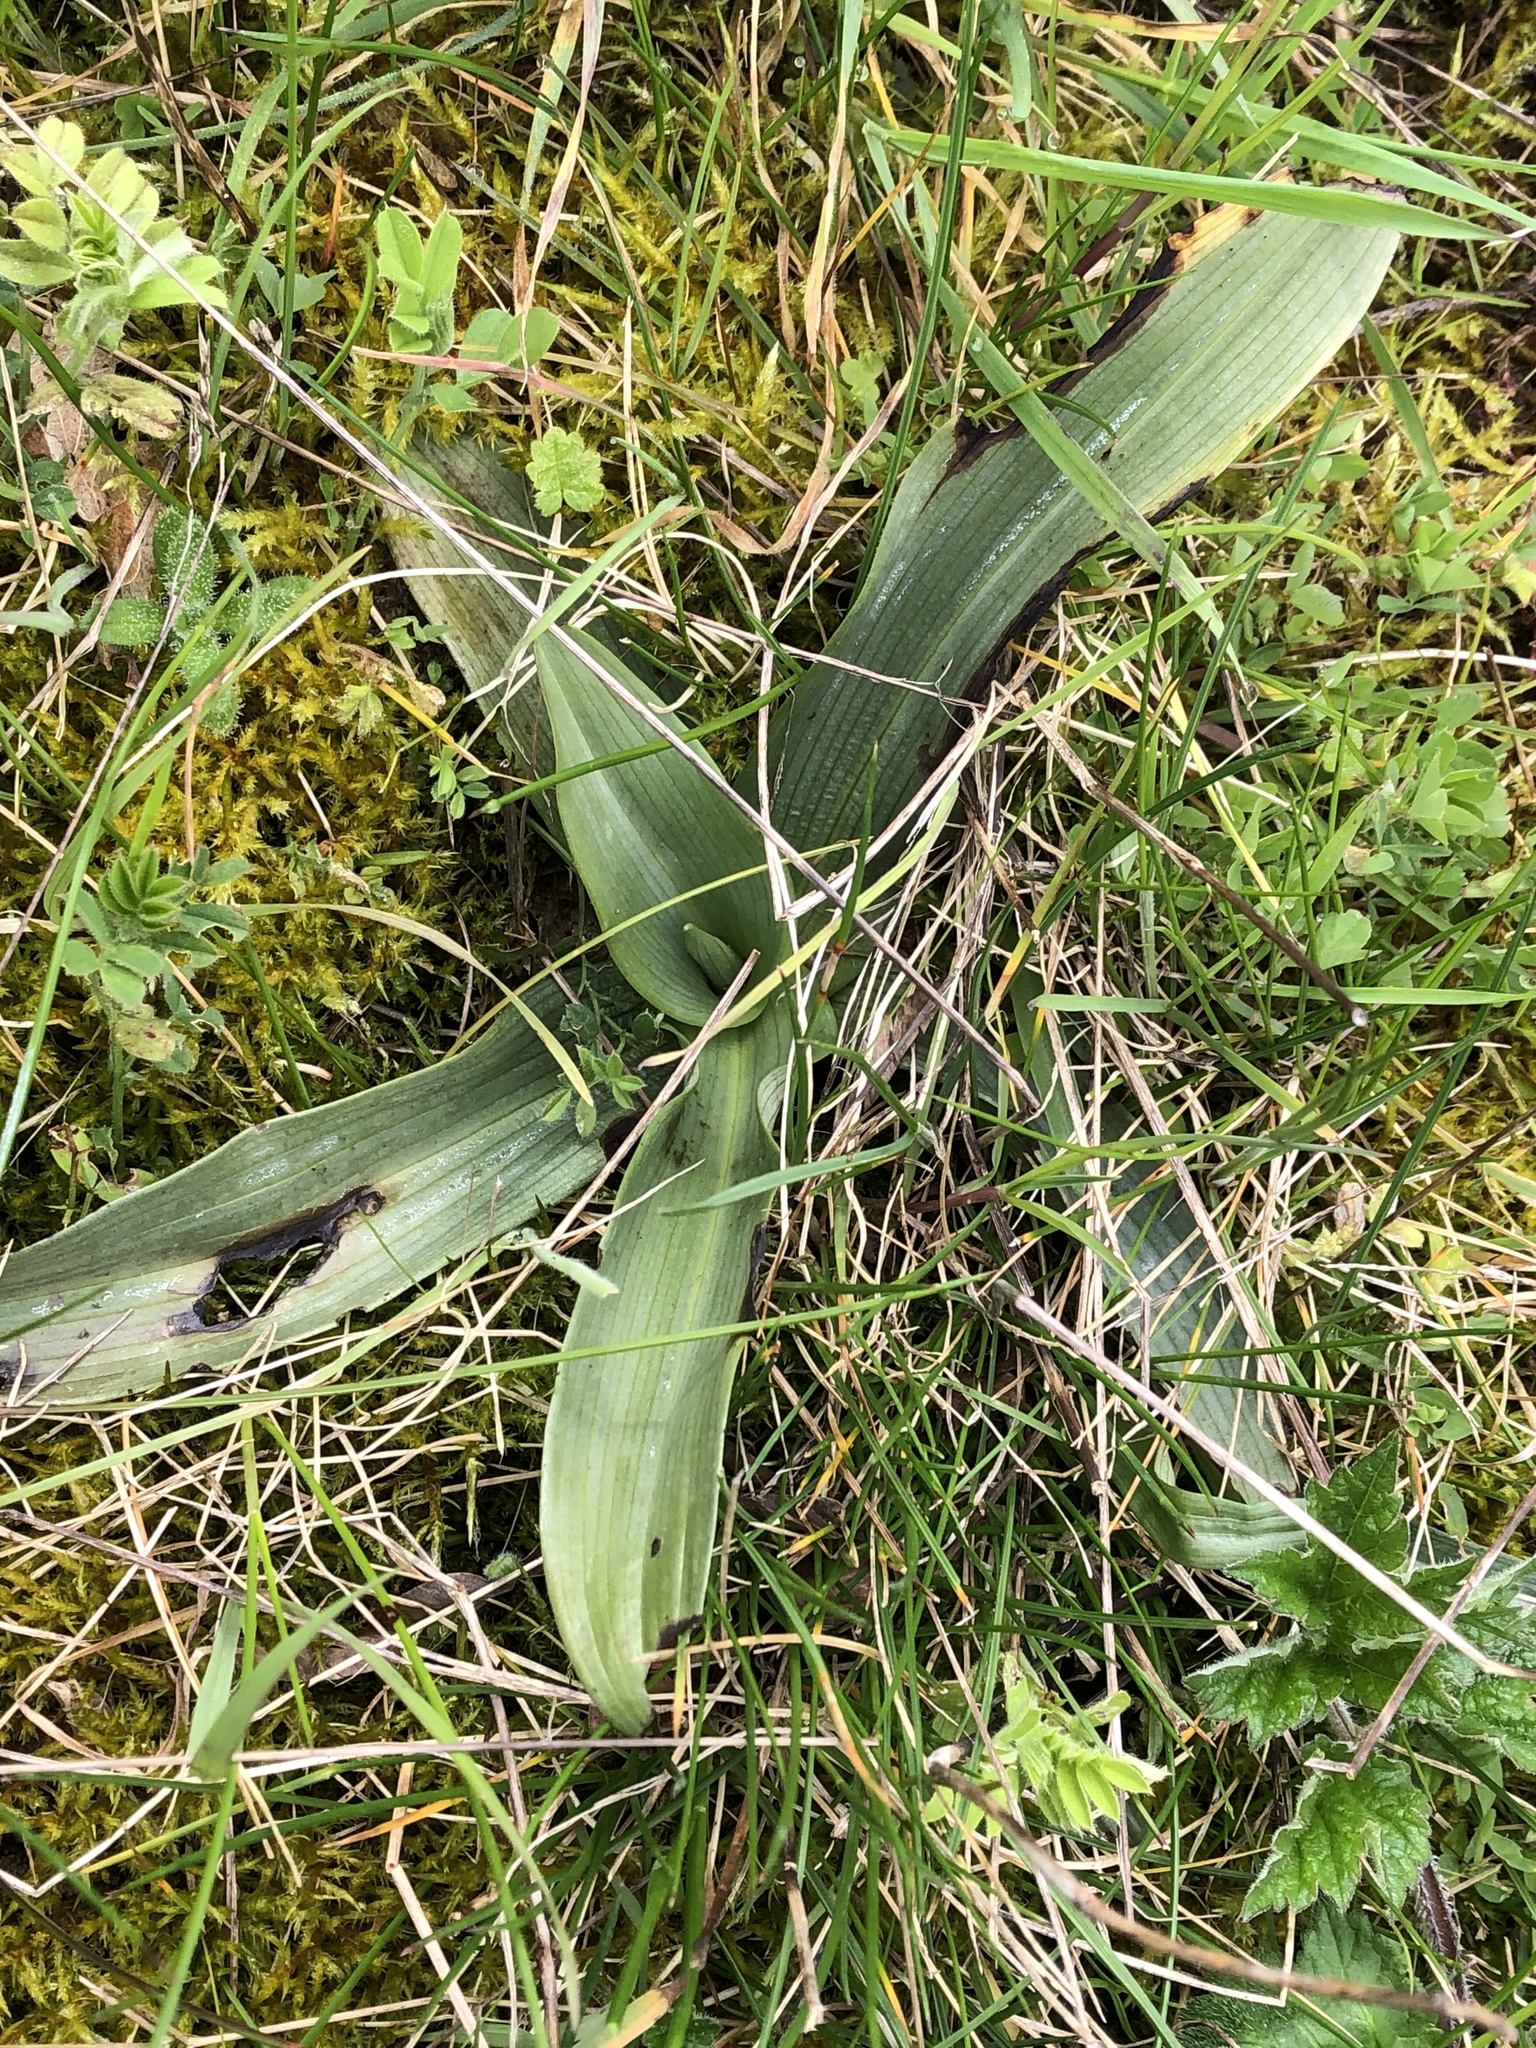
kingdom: Plantae
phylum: Tracheophyta
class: Liliopsida
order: Asparagales
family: Orchidaceae
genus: Ophrys
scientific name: Ophrys apifera
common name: Bee orchid
